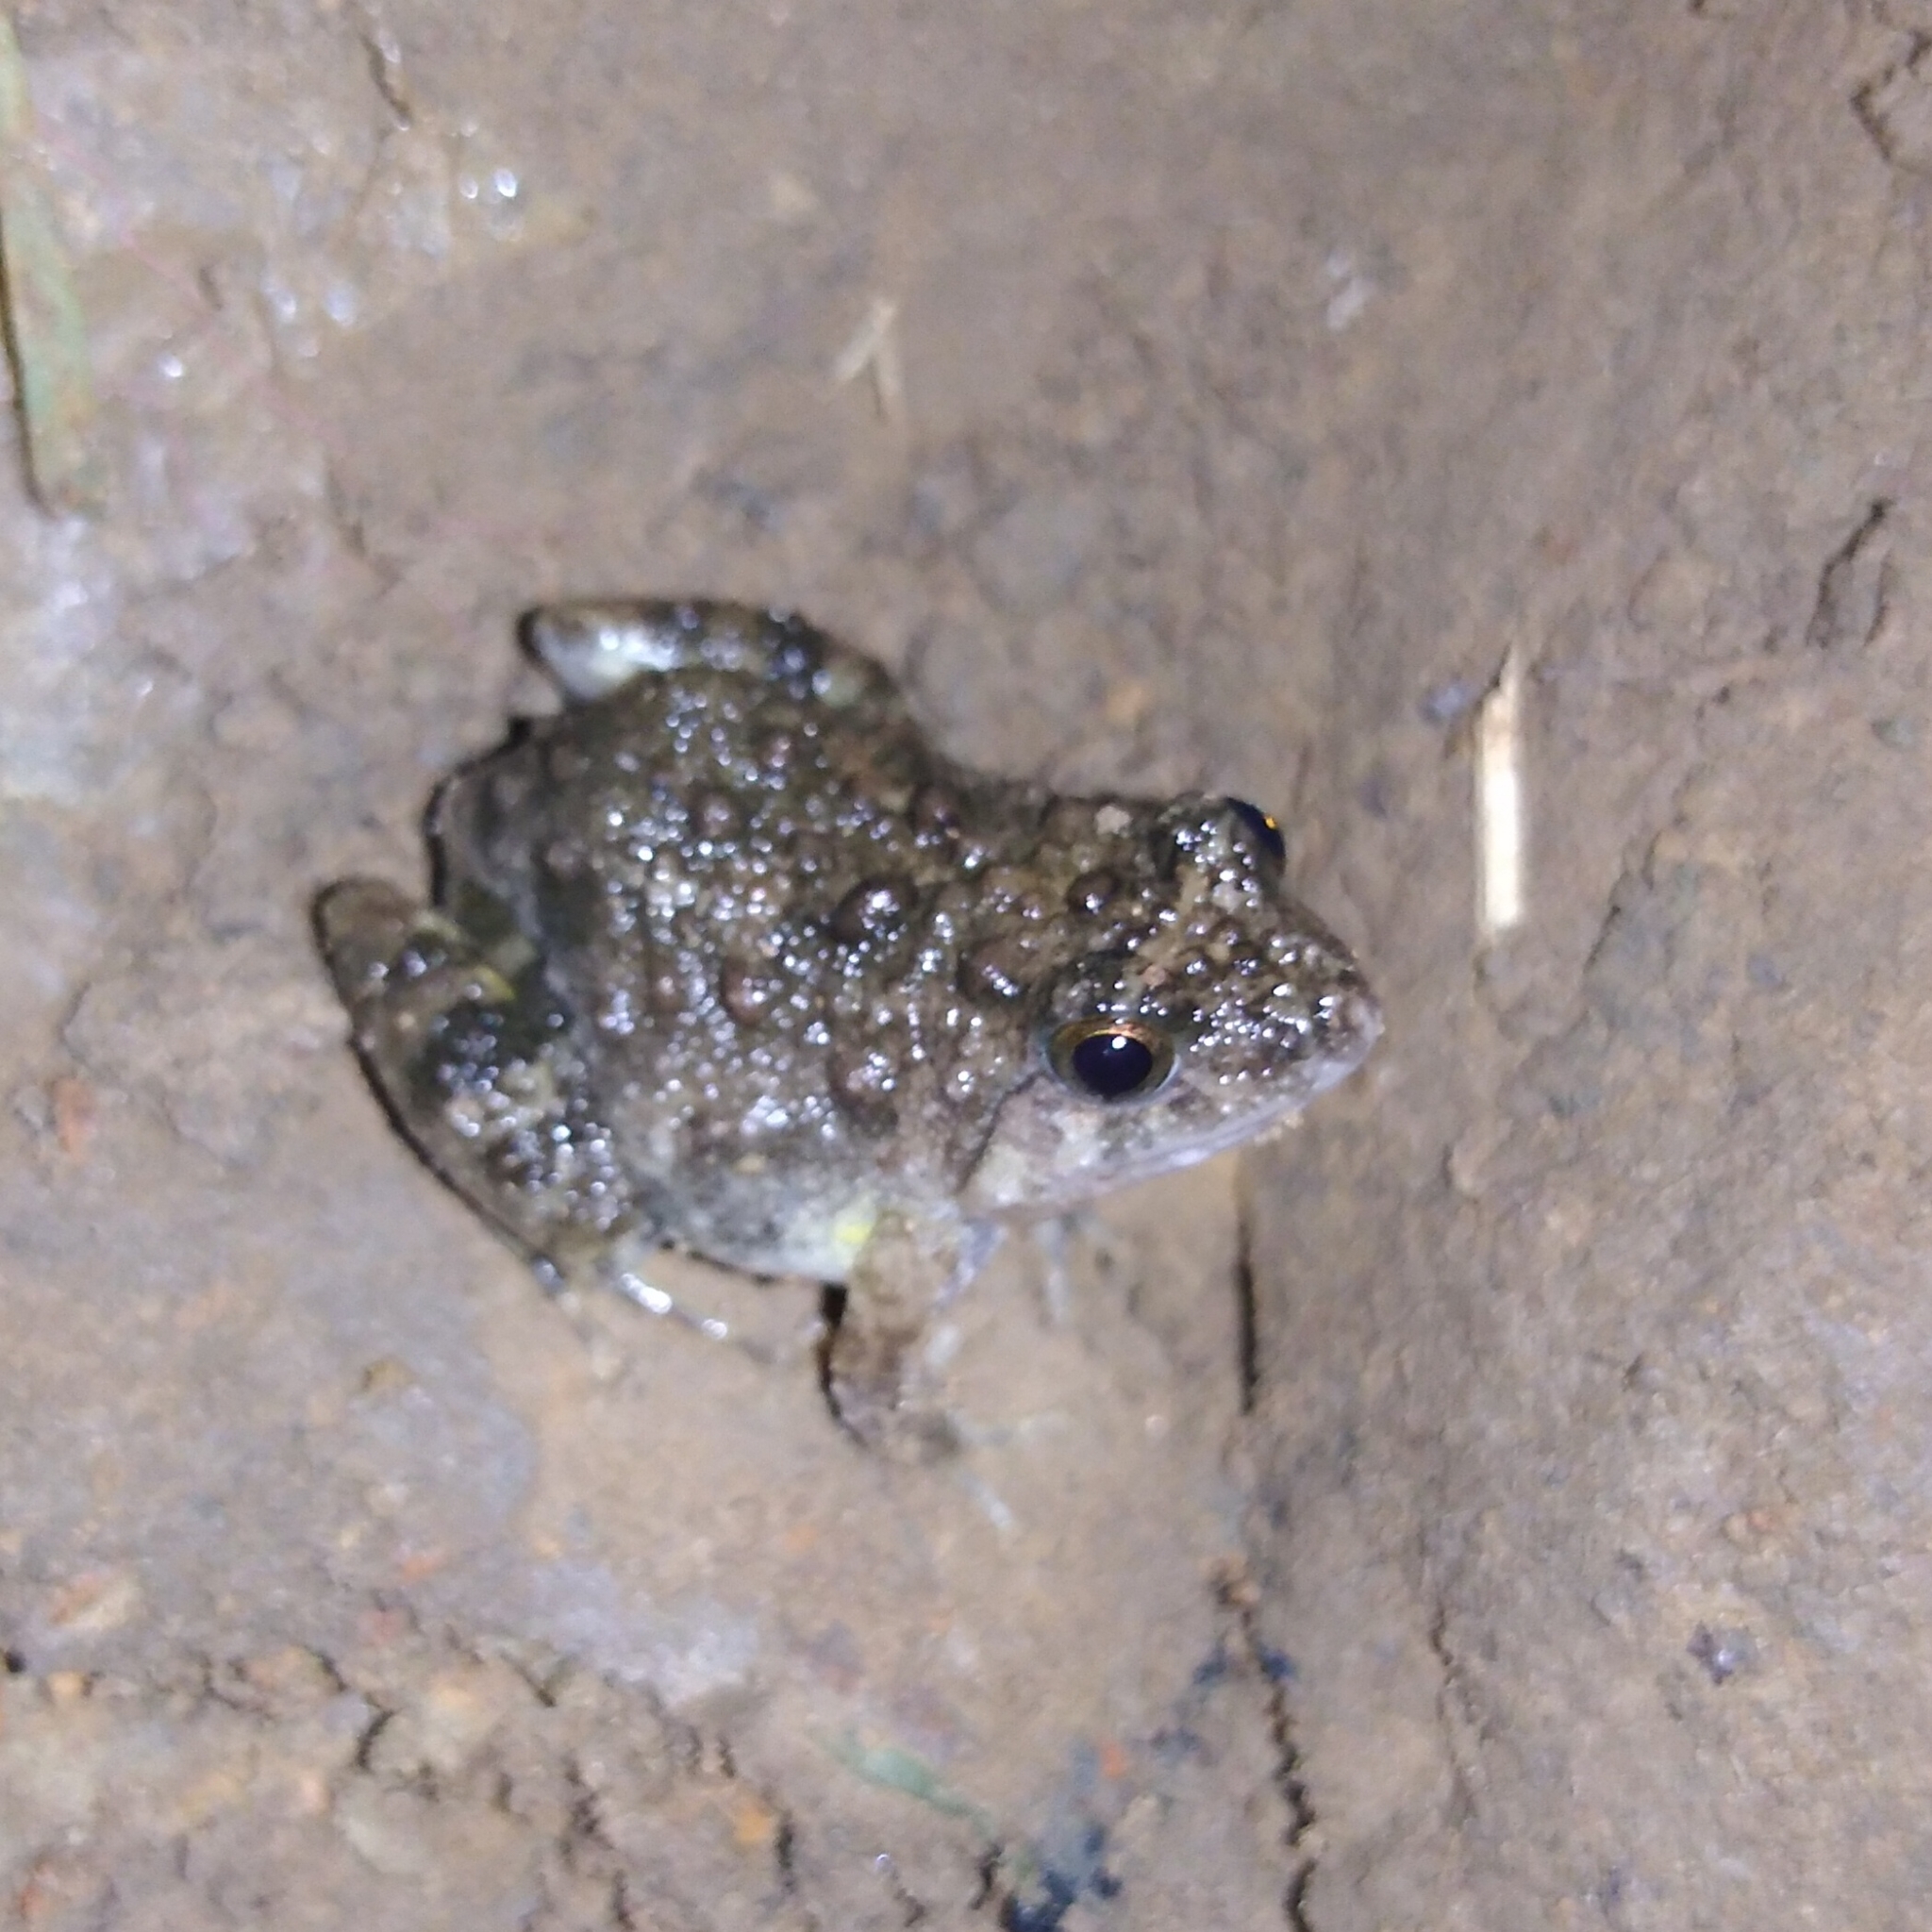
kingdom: Animalia
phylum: Chordata
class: Amphibia
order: Anura
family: Phrynobatrachidae
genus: Phrynobatrachus
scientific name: Phrynobatrachus natalensis
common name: Snoring puddle frog
